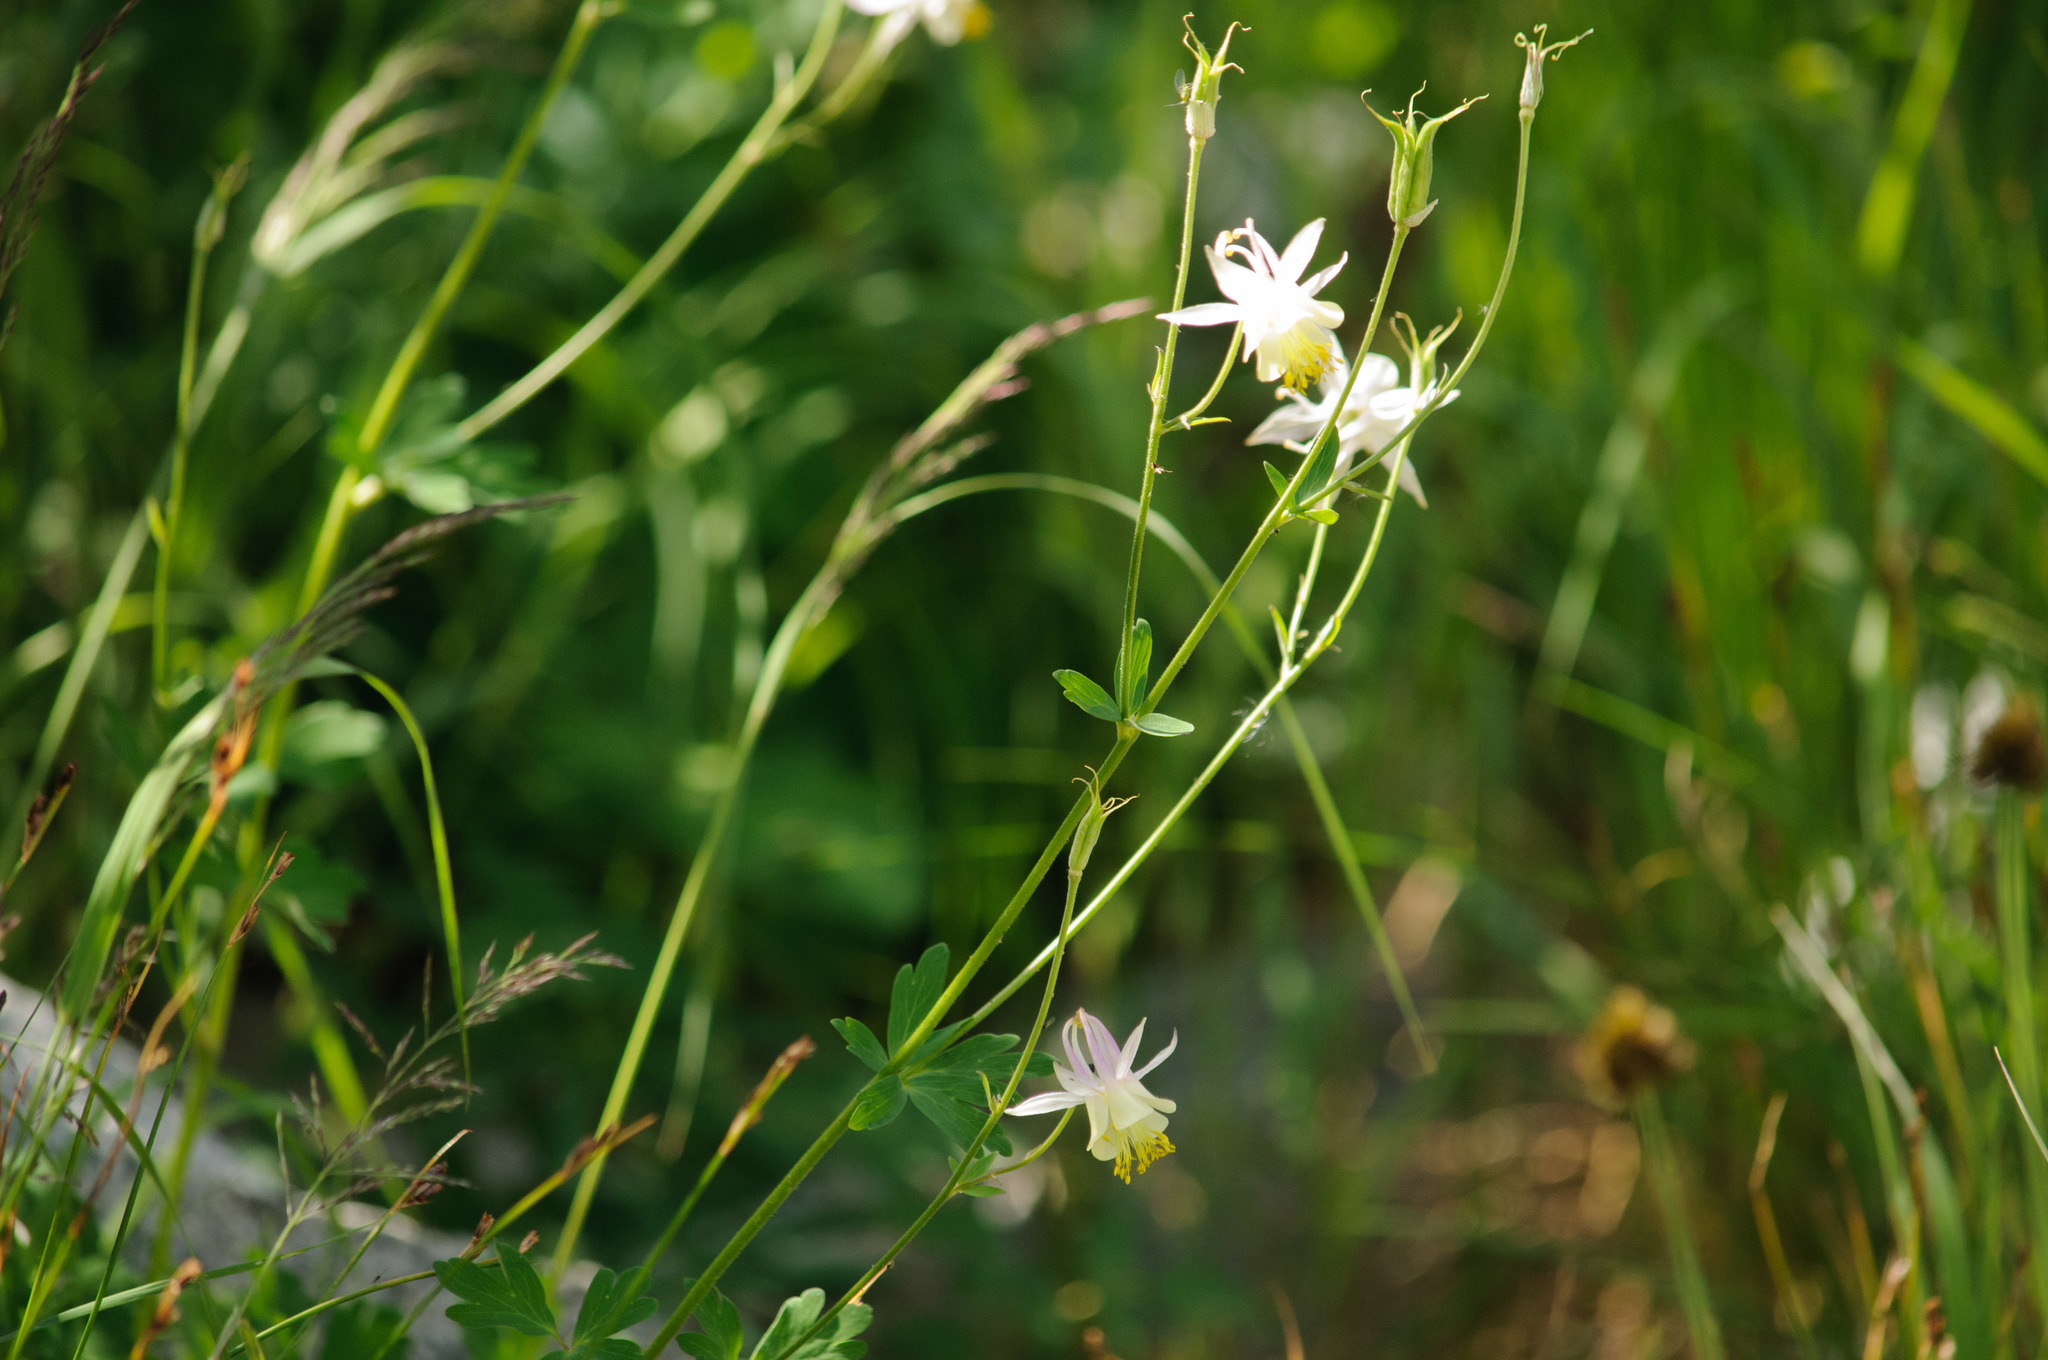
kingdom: Plantae
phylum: Tracheophyta
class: Magnoliopsida
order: Ranunculales
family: Ranunculaceae
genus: Aquilegia
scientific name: Aquilegia flavescens
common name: Yellow columbine
